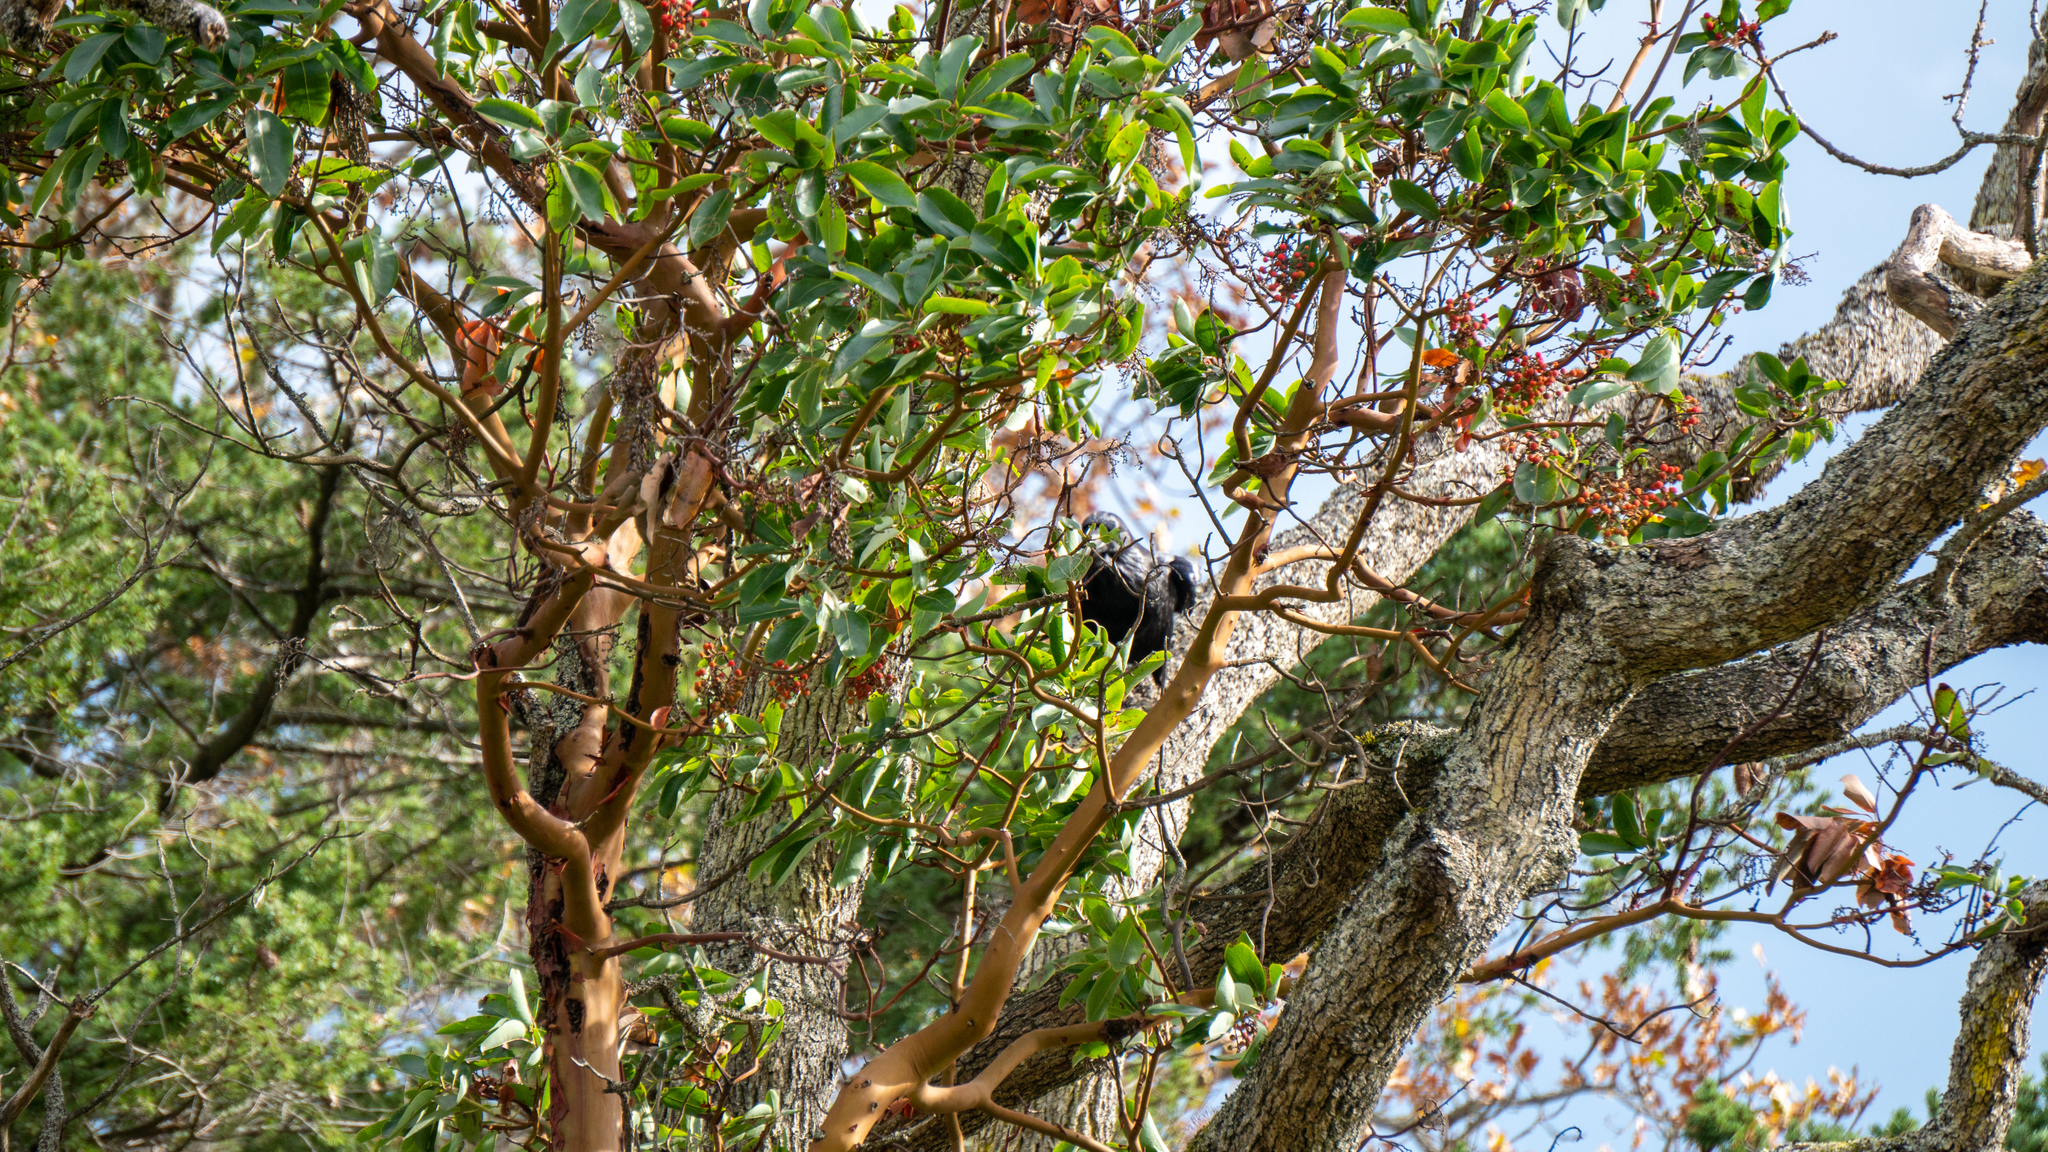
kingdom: Plantae
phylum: Tracheophyta
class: Magnoliopsida
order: Ericales
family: Ericaceae
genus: Arbutus
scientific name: Arbutus menziesii
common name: Pacific madrone
